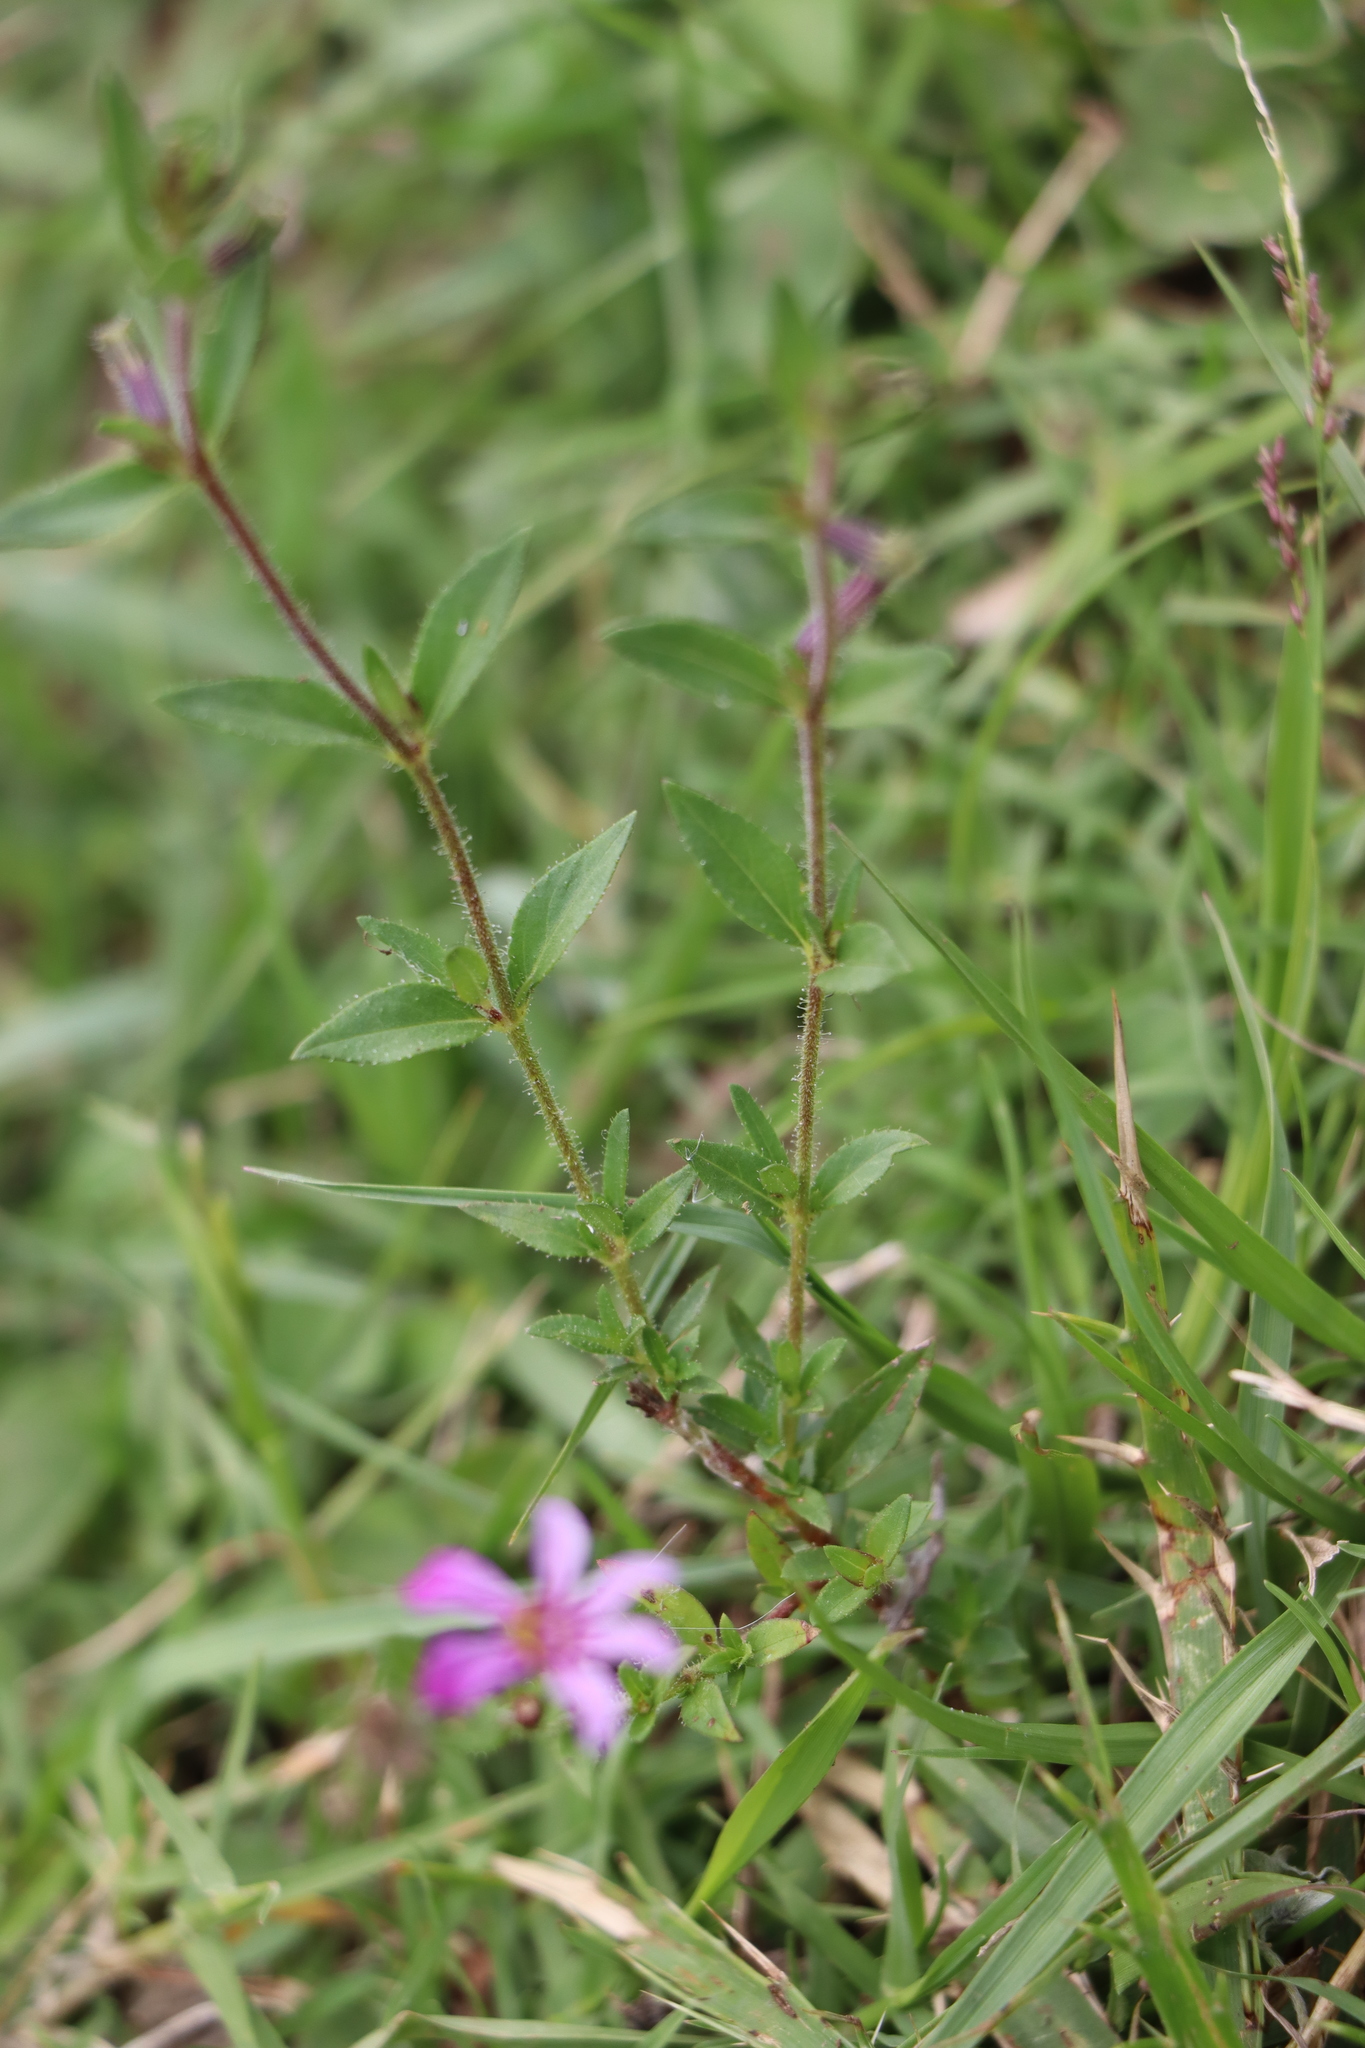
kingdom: Plantae
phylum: Tracheophyta
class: Magnoliopsida
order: Myrtales
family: Lythraceae
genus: Cuphea
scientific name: Cuphea glutinosa
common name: Sticky waxweed
